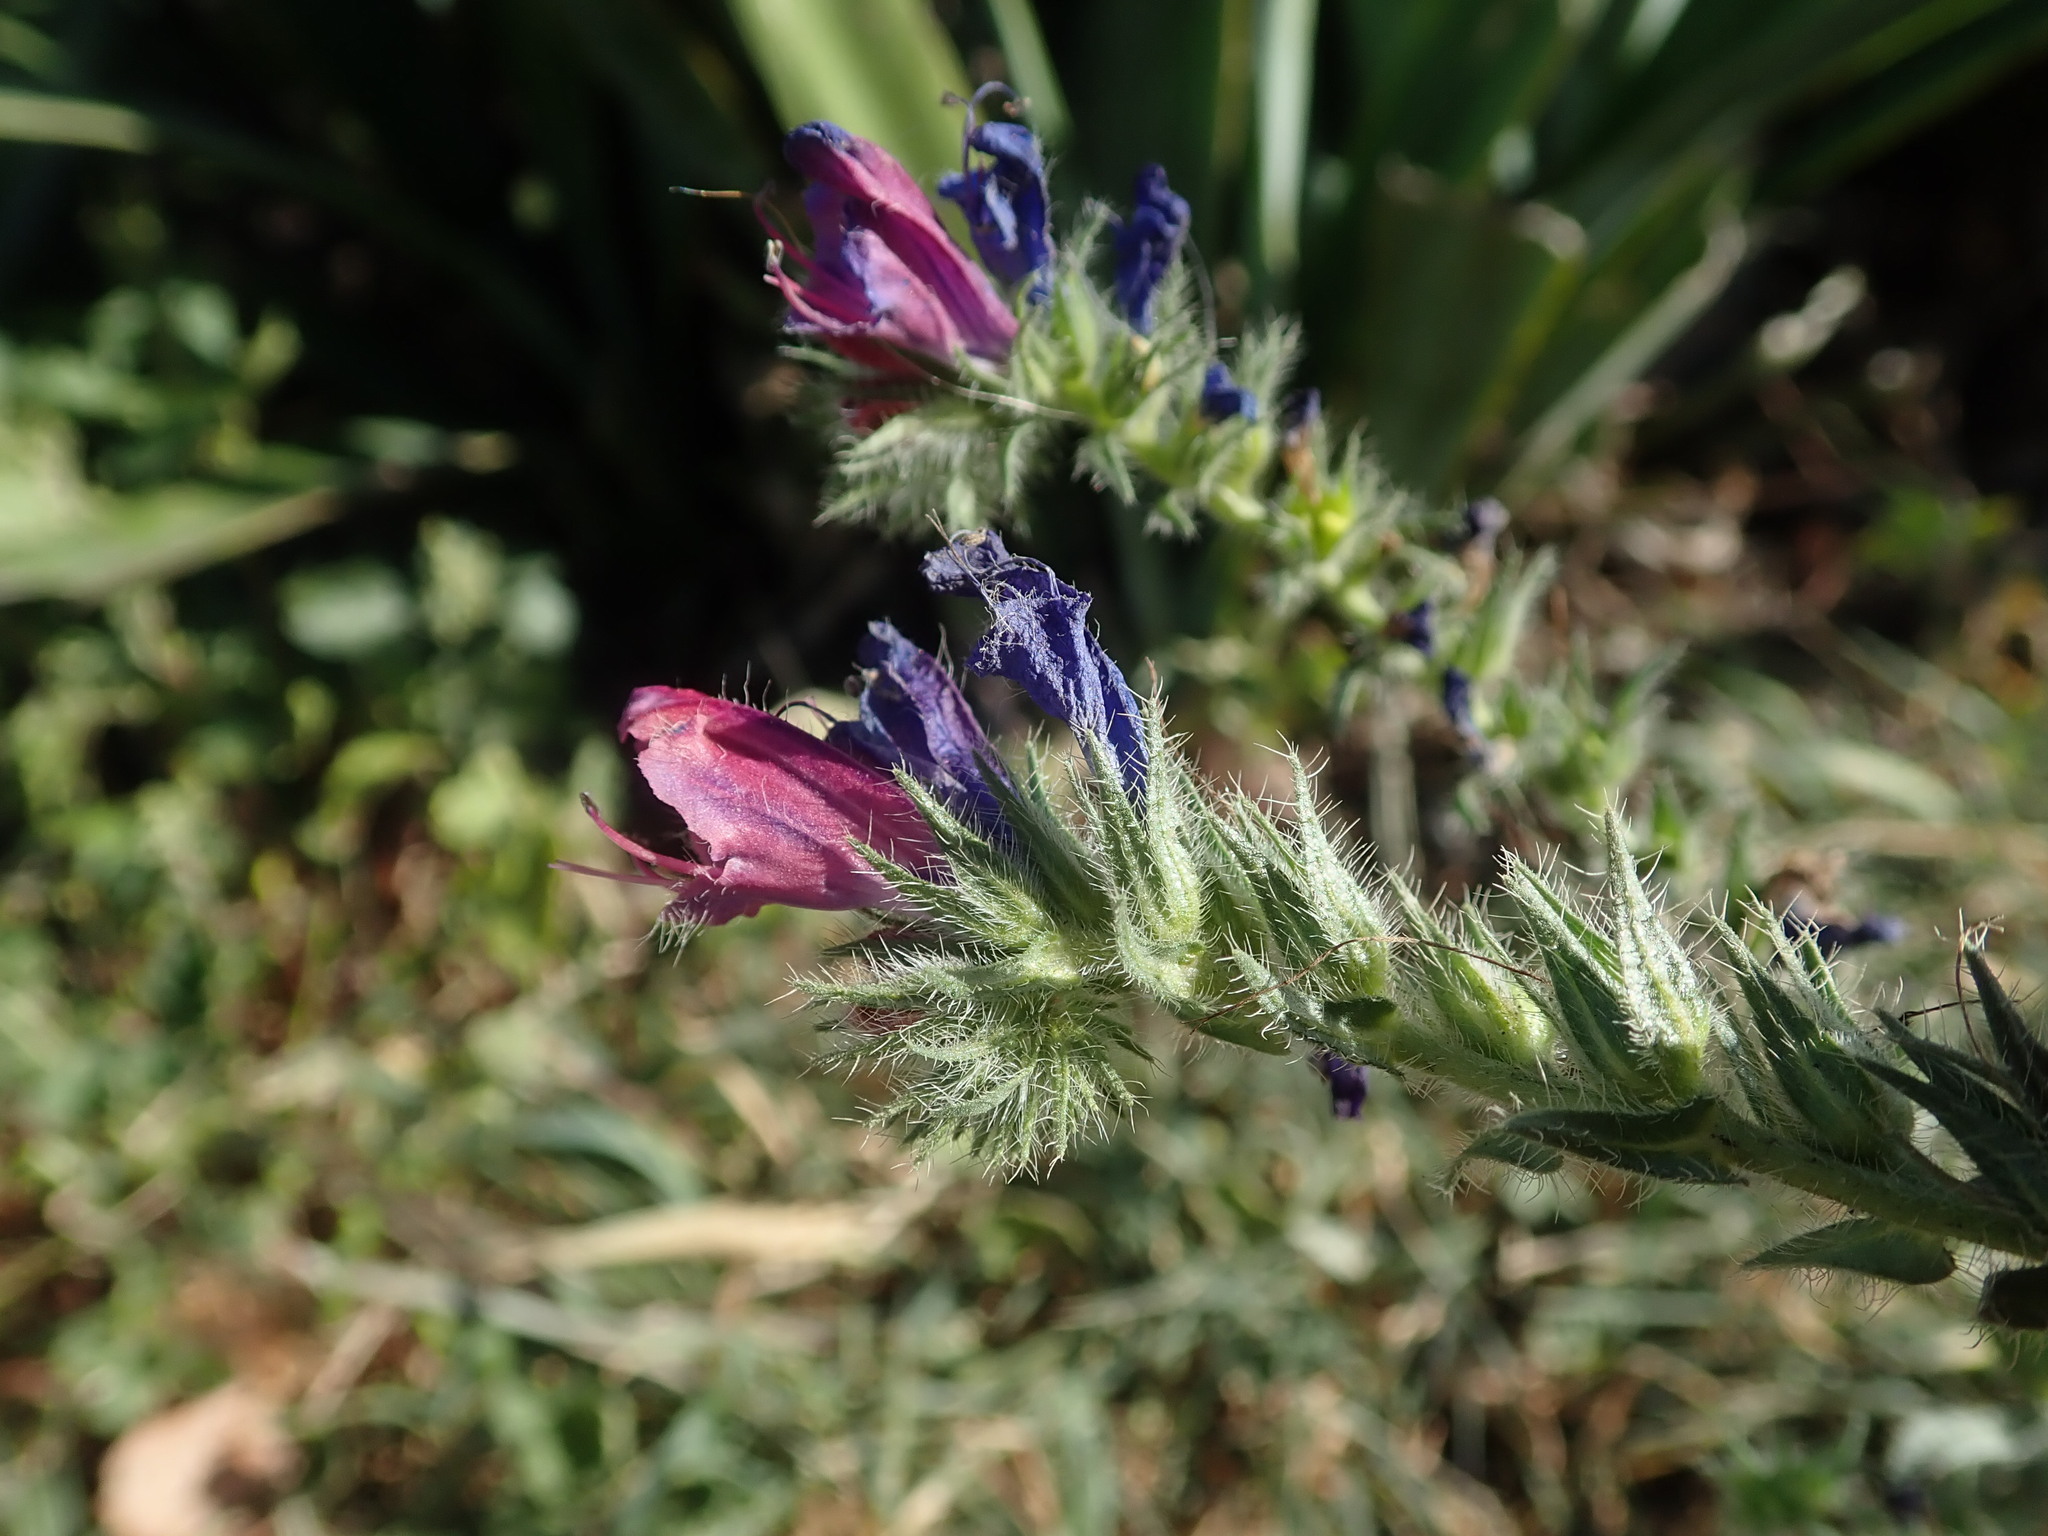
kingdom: Plantae
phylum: Tracheophyta
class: Magnoliopsida
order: Boraginales
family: Boraginaceae
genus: Echium
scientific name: Echium plantagineum
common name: Purple viper's-bugloss
